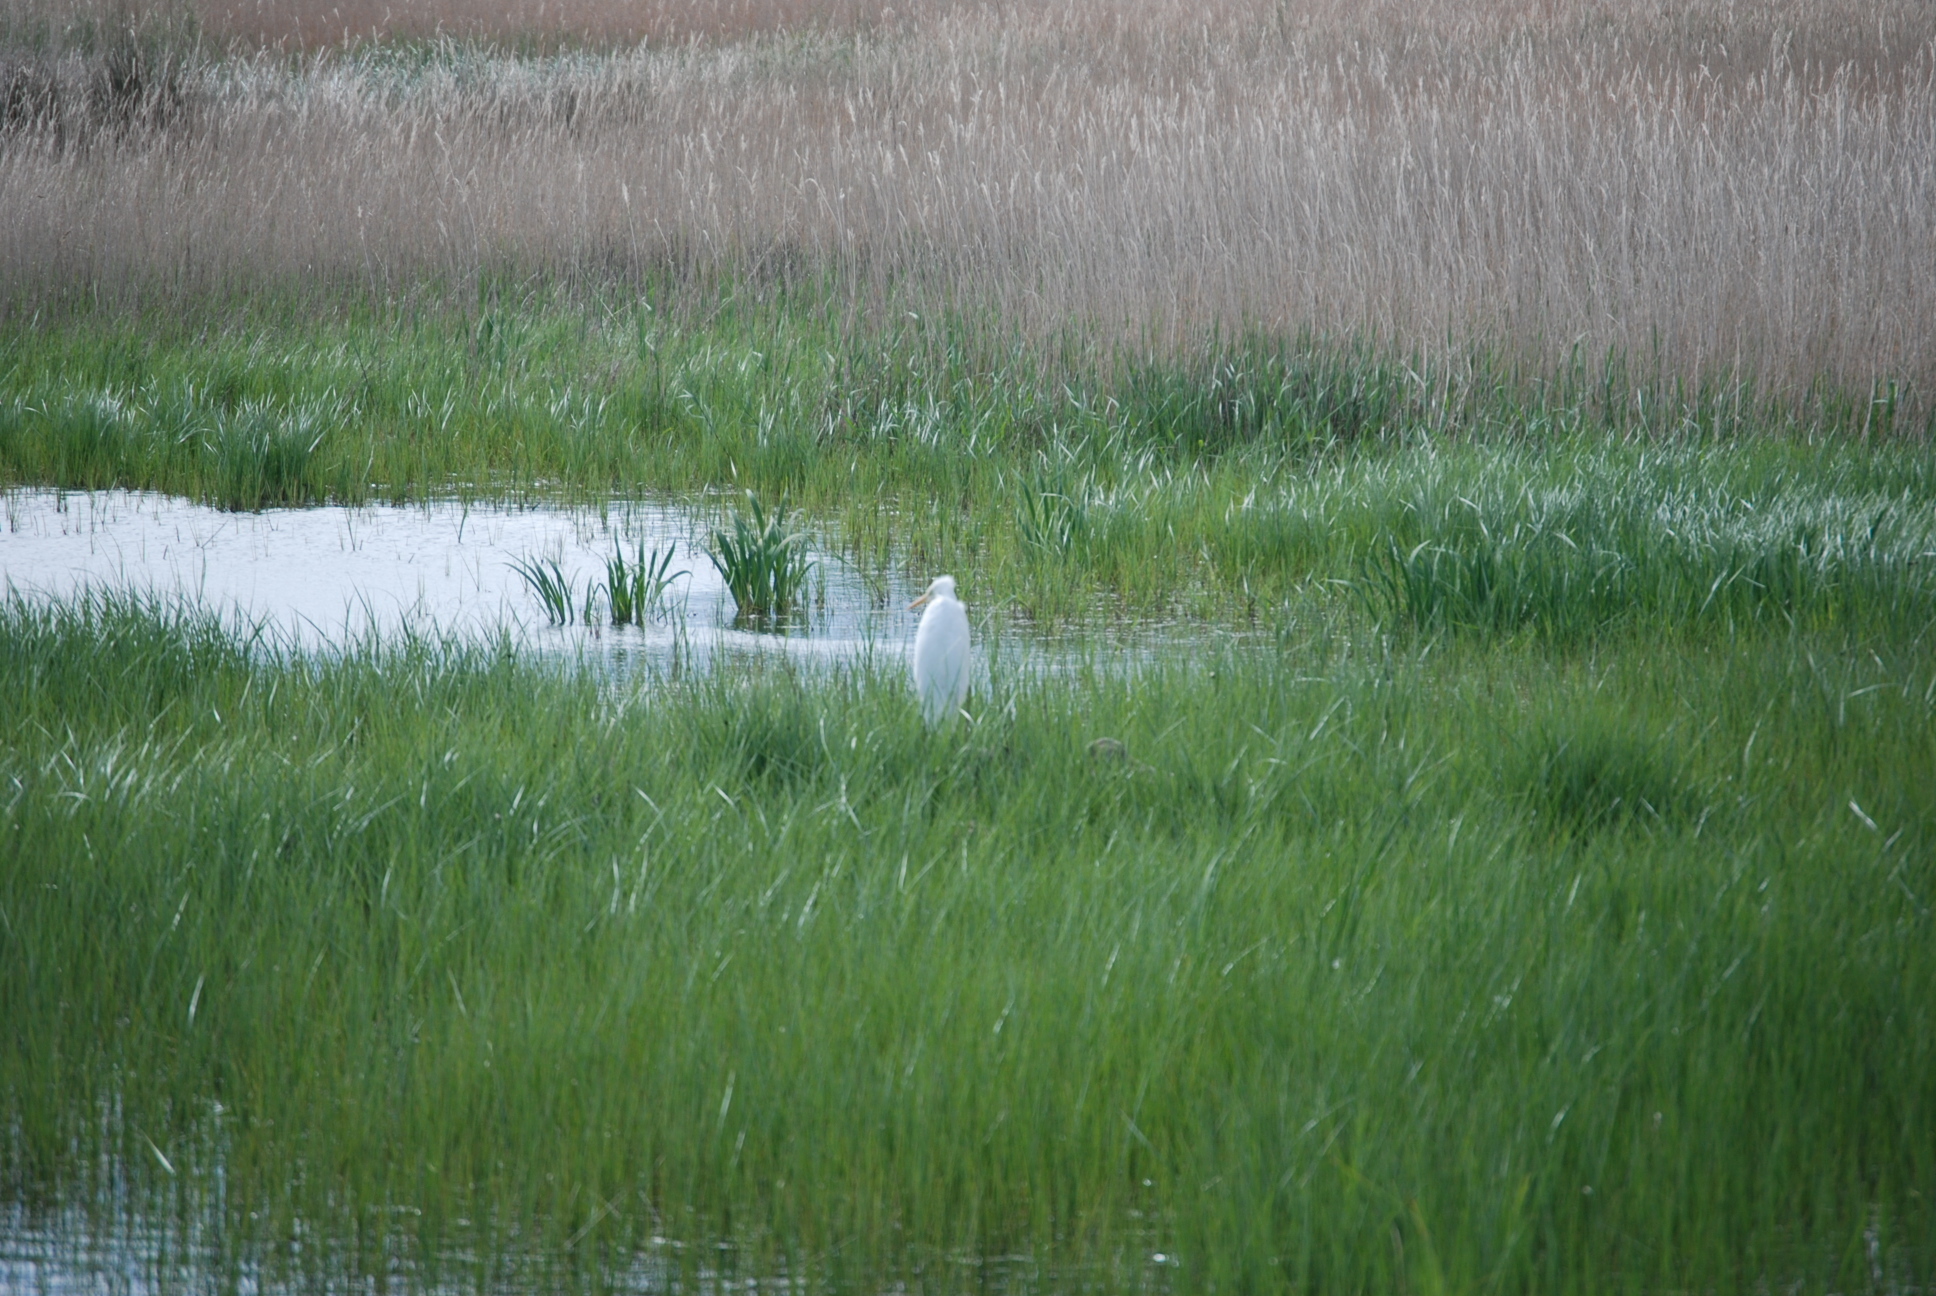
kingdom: Animalia
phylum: Chordata
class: Aves
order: Pelecaniformes
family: Ardeidae
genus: Bubulcus
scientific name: Bubulcus ibis
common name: Cattle egret
